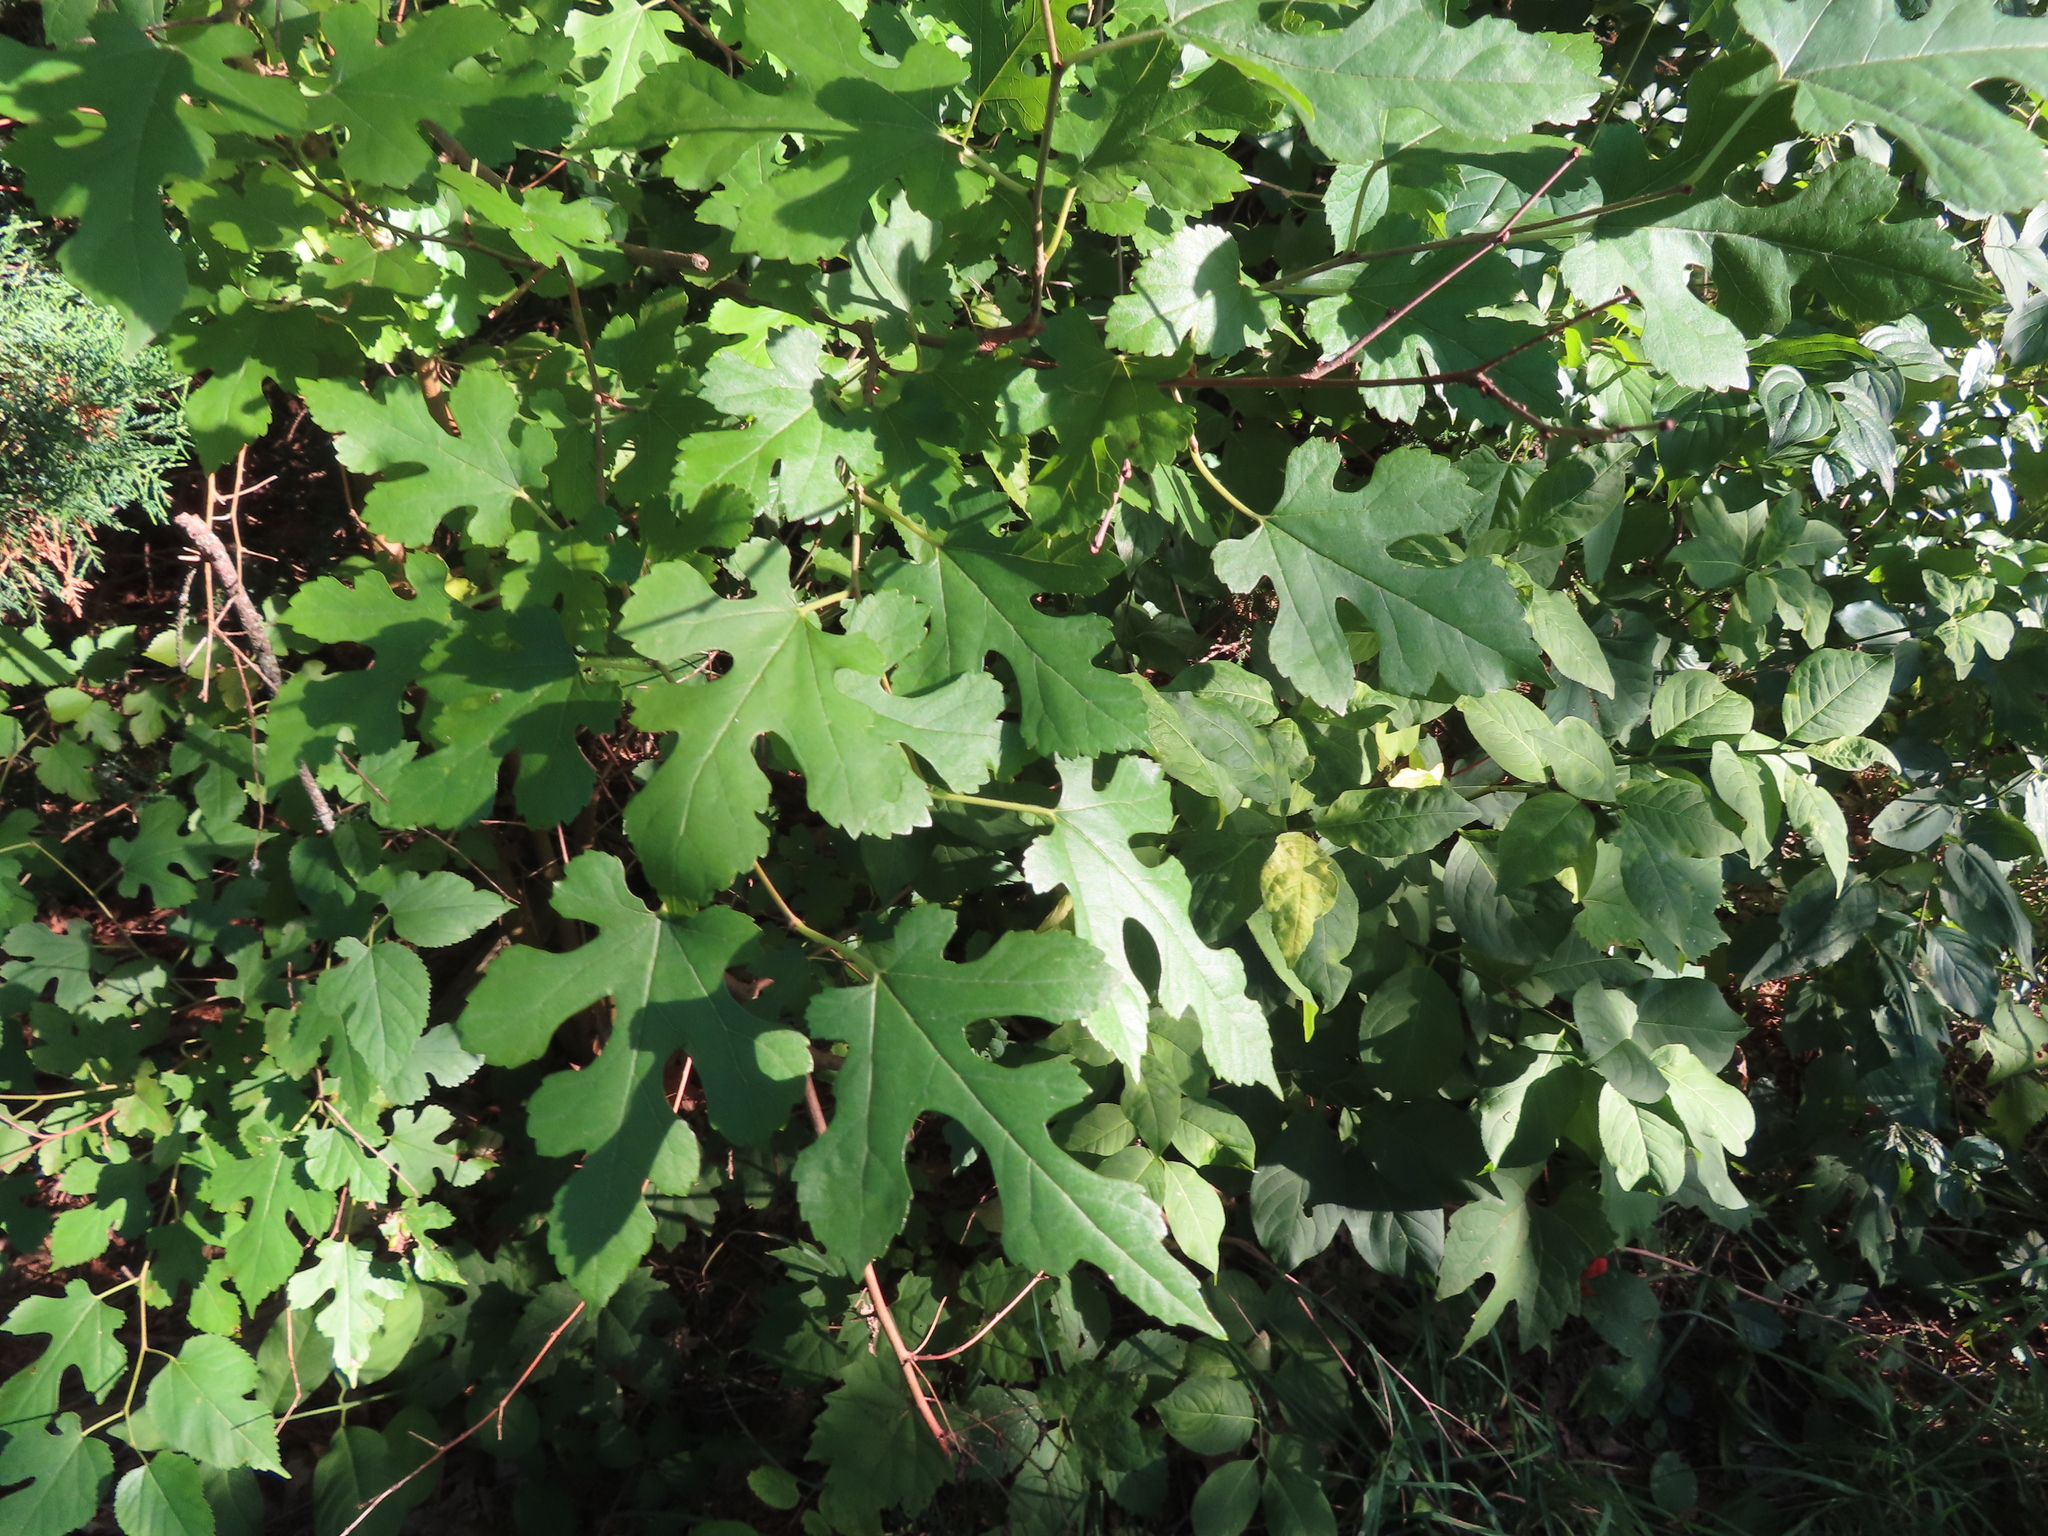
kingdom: Plantae
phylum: Tracheophyta
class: Magnoliopsida
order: Rosales
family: Moraceae
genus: Morus
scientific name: Morus alba
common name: White mulberry
